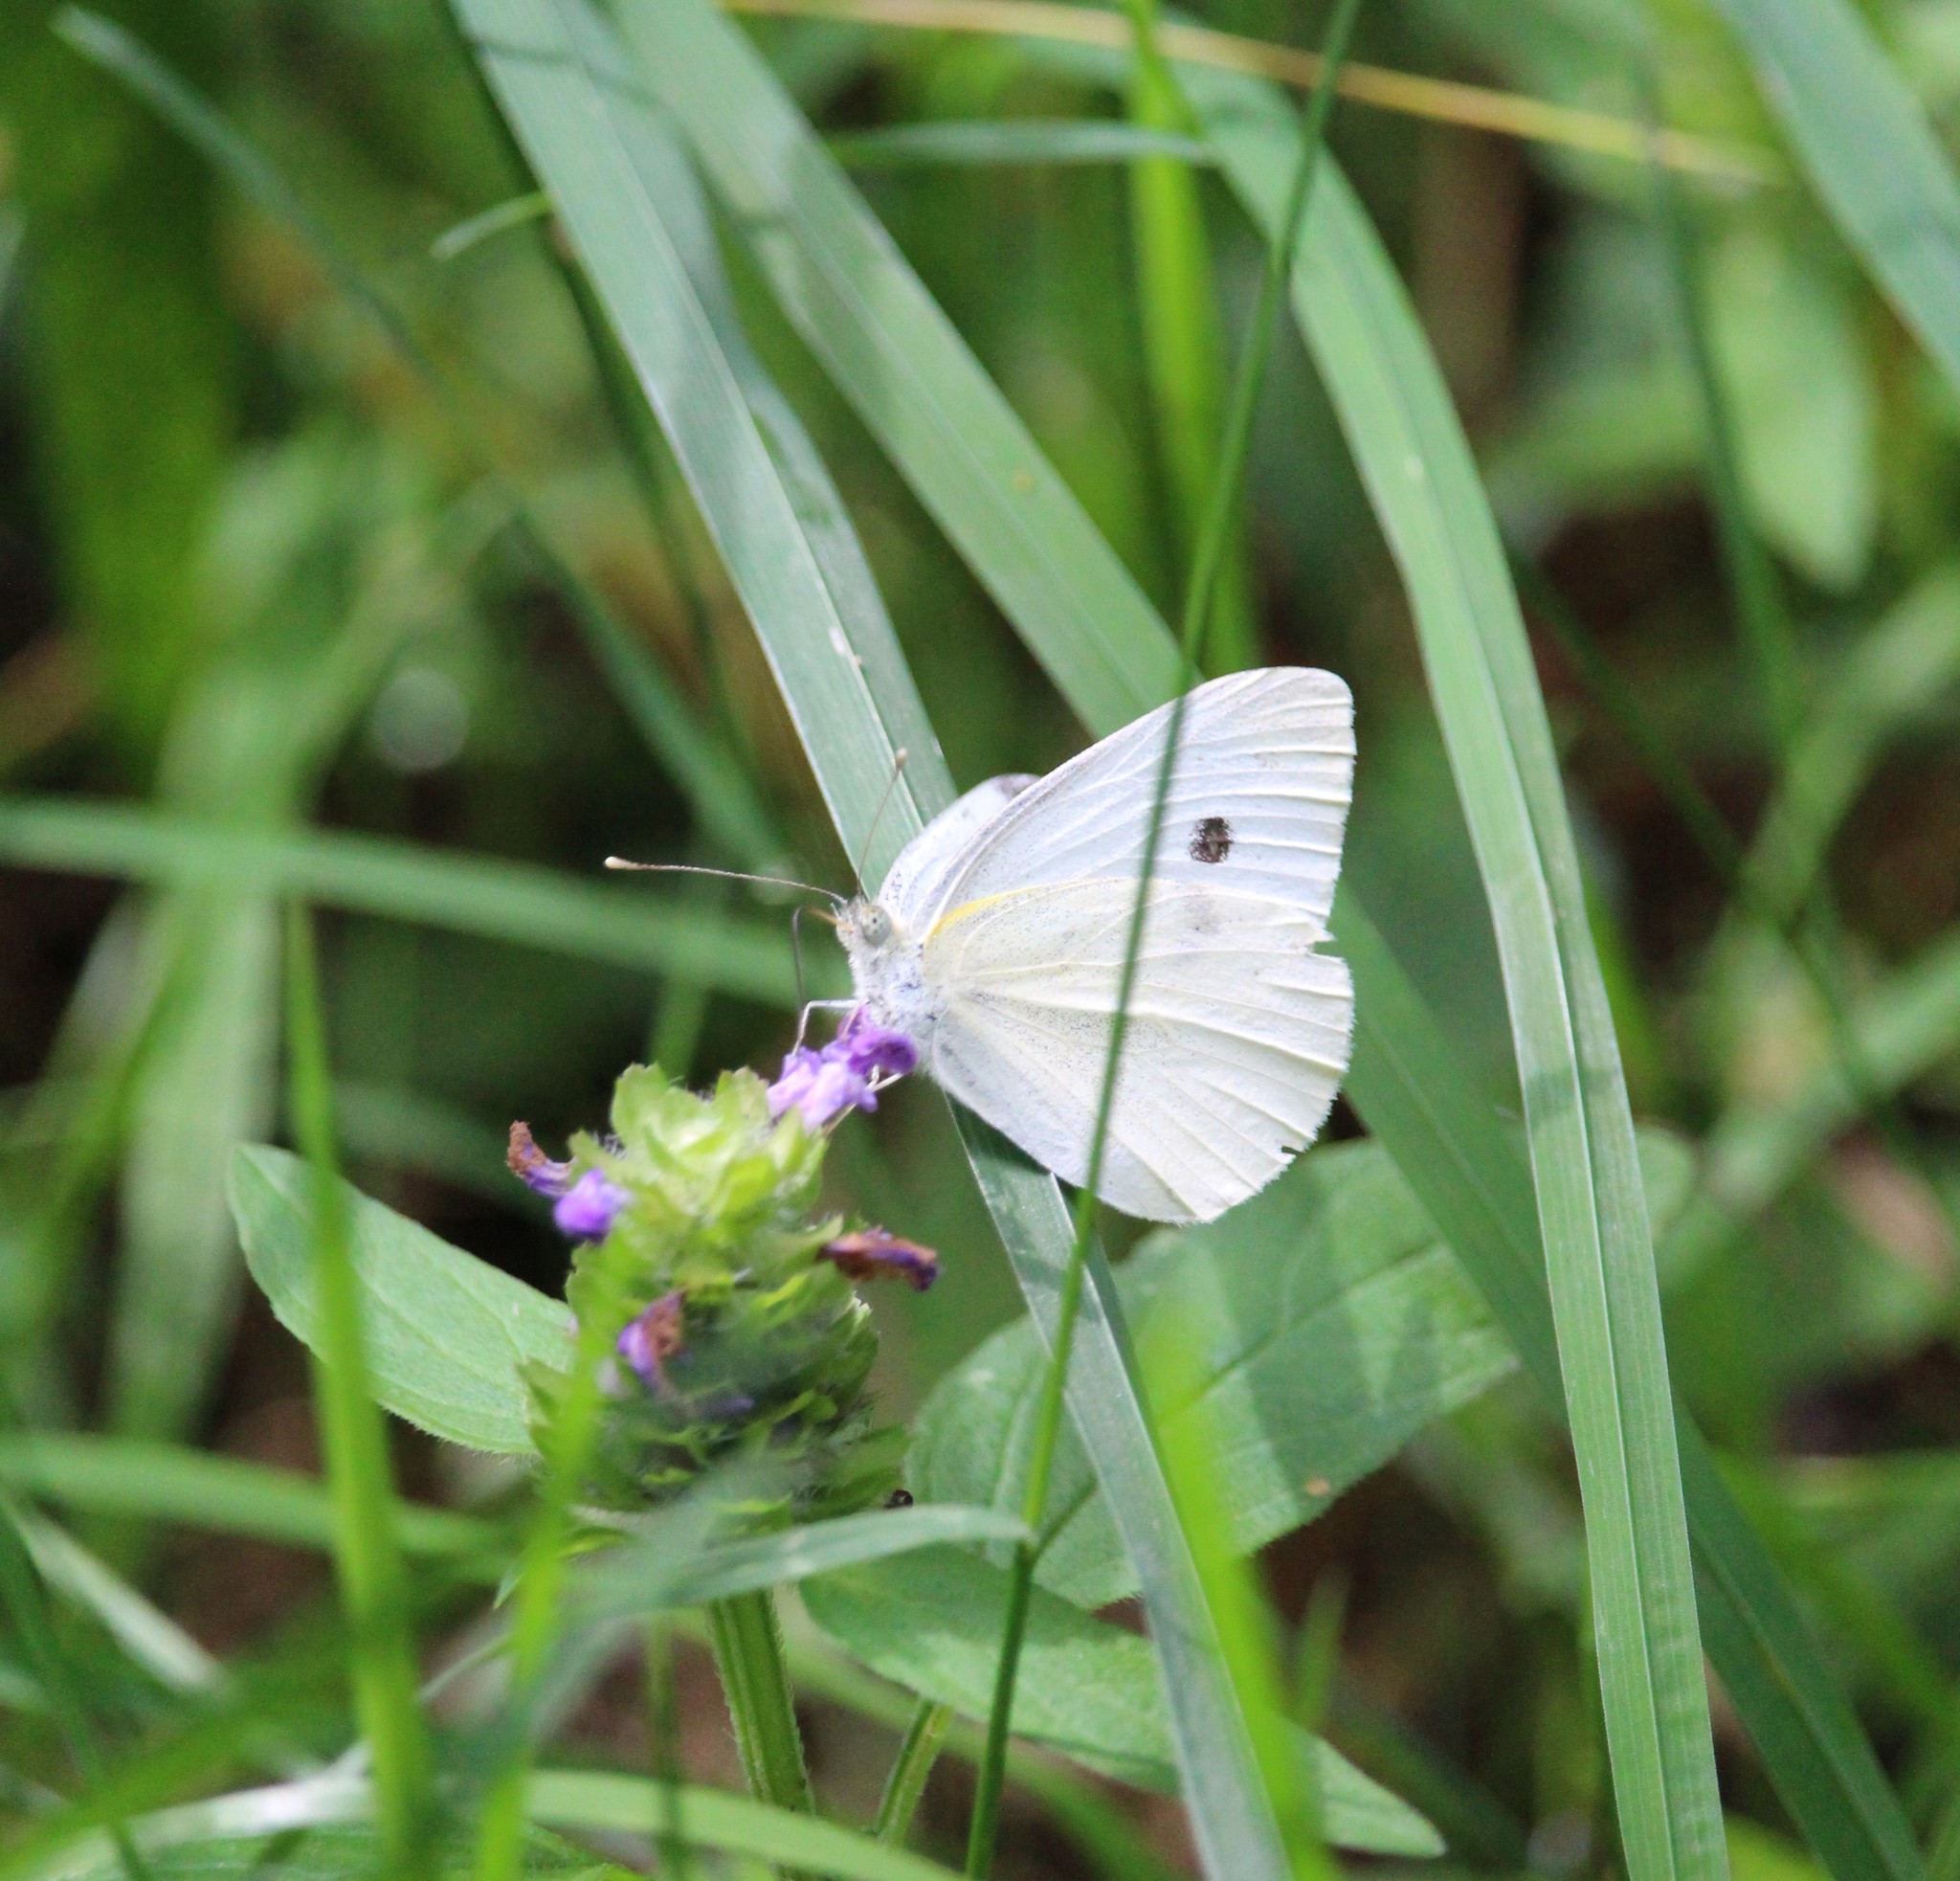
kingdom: Animalia
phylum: Arthropoda
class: Insecta
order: Lepidoptera
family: Pieridae
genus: Pieris
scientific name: Pieris rapae
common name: Small white
